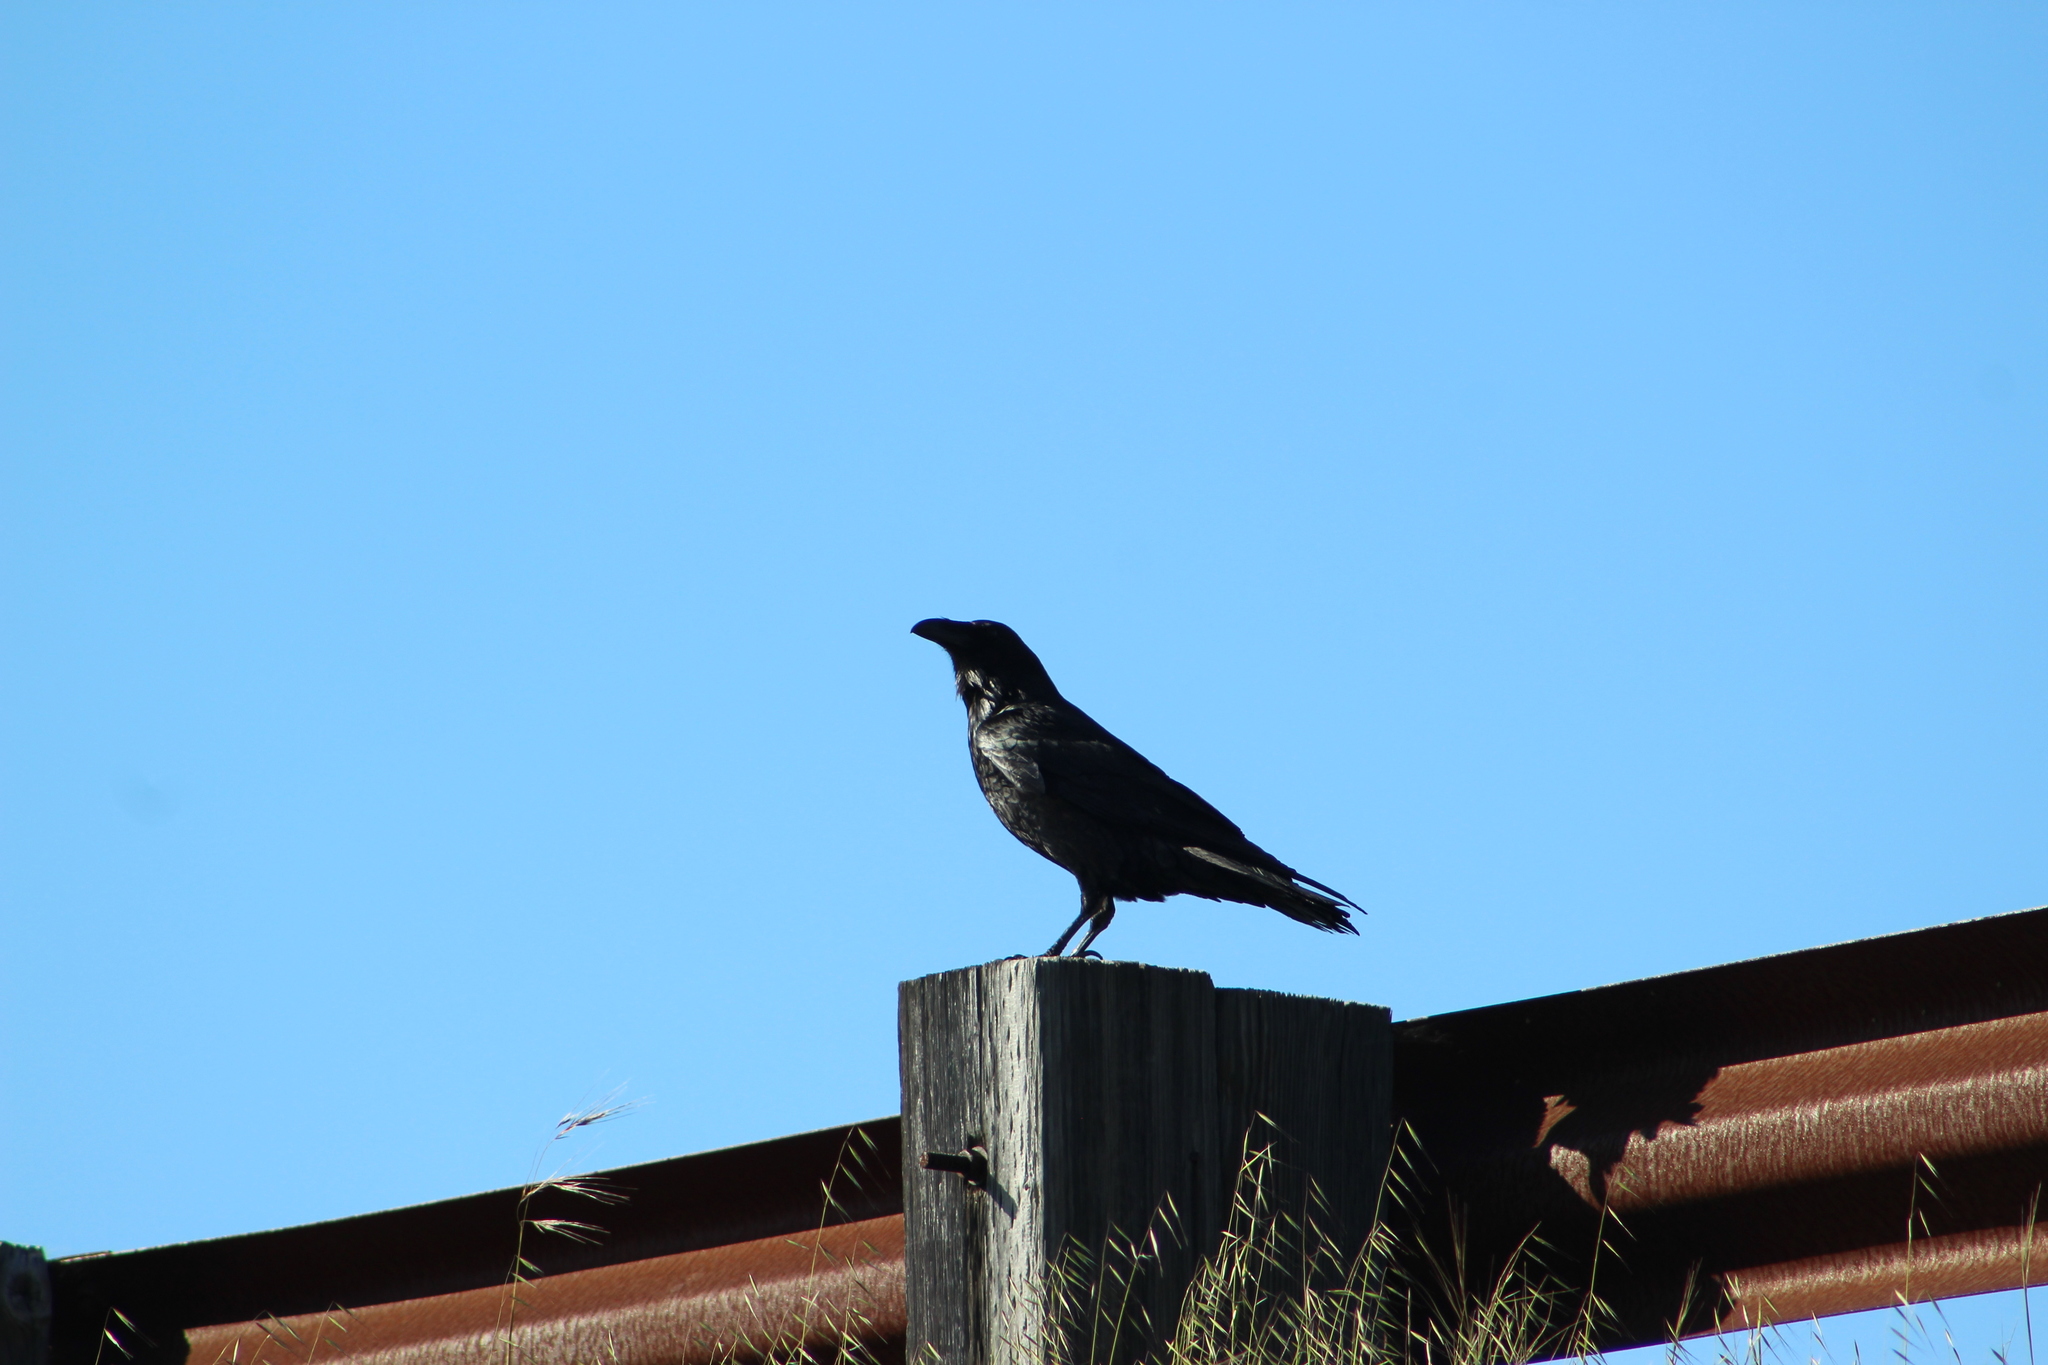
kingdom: Animalia
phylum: Chordata
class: Aves
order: Passeriformes
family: Corvidae
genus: Corvus
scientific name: Corvus corax
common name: Common raven
